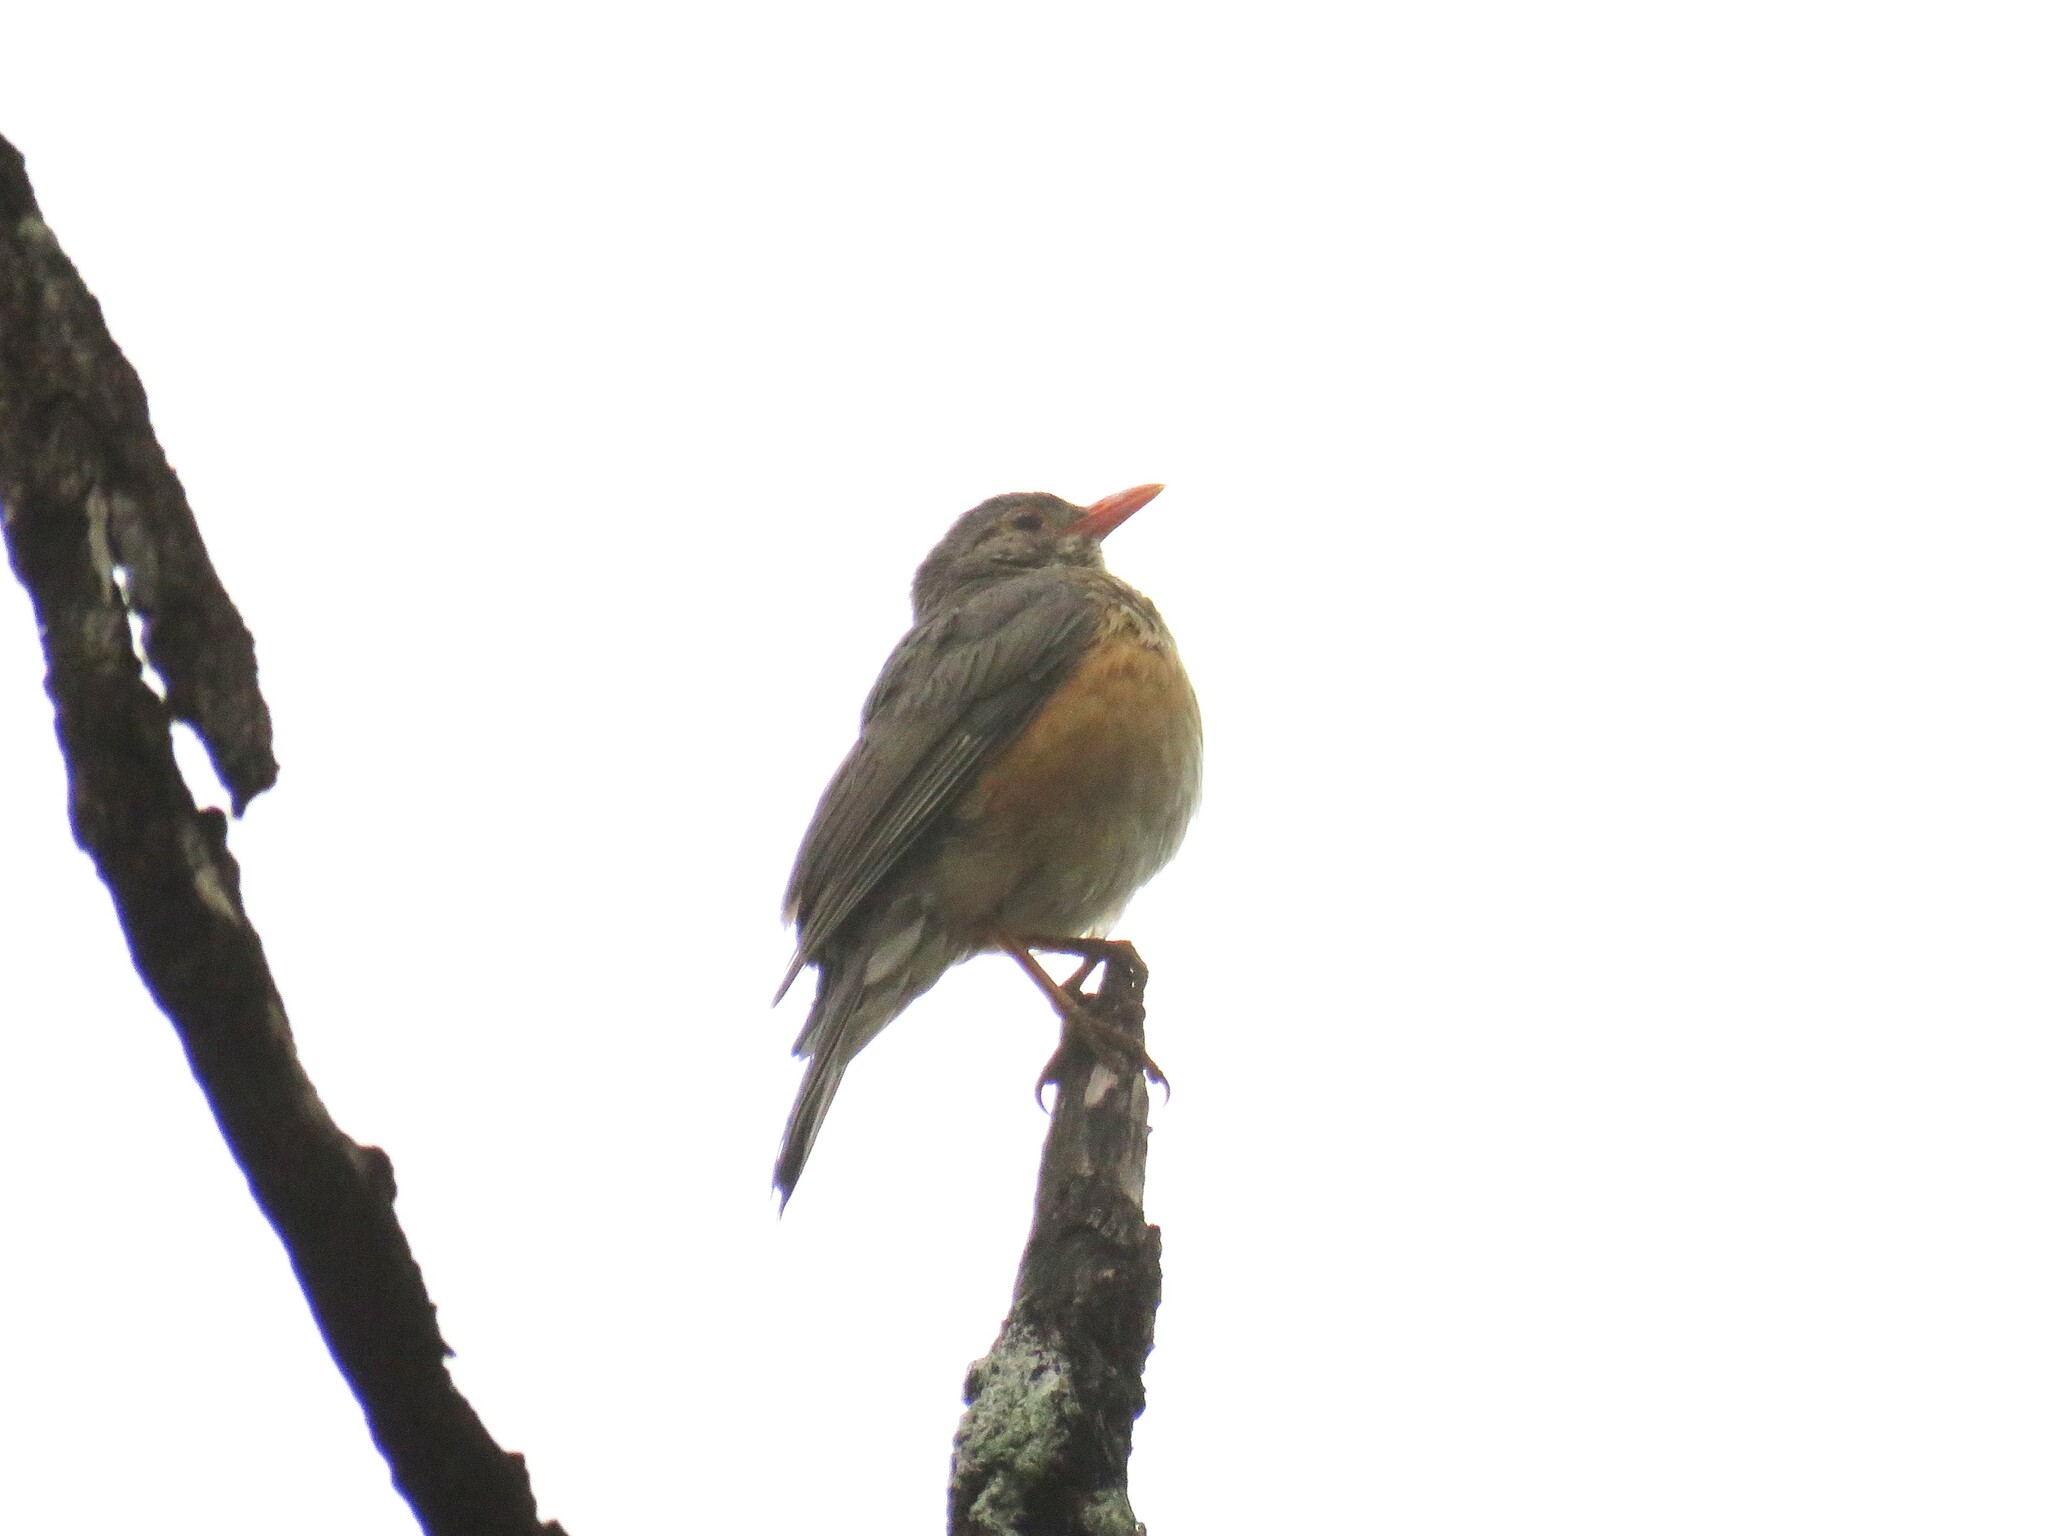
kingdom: Animalia
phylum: Chordata
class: Aves
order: Passeriformes
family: Turdidae
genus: Turdus
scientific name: Turdus libonyana
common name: Kurrichane thrush
